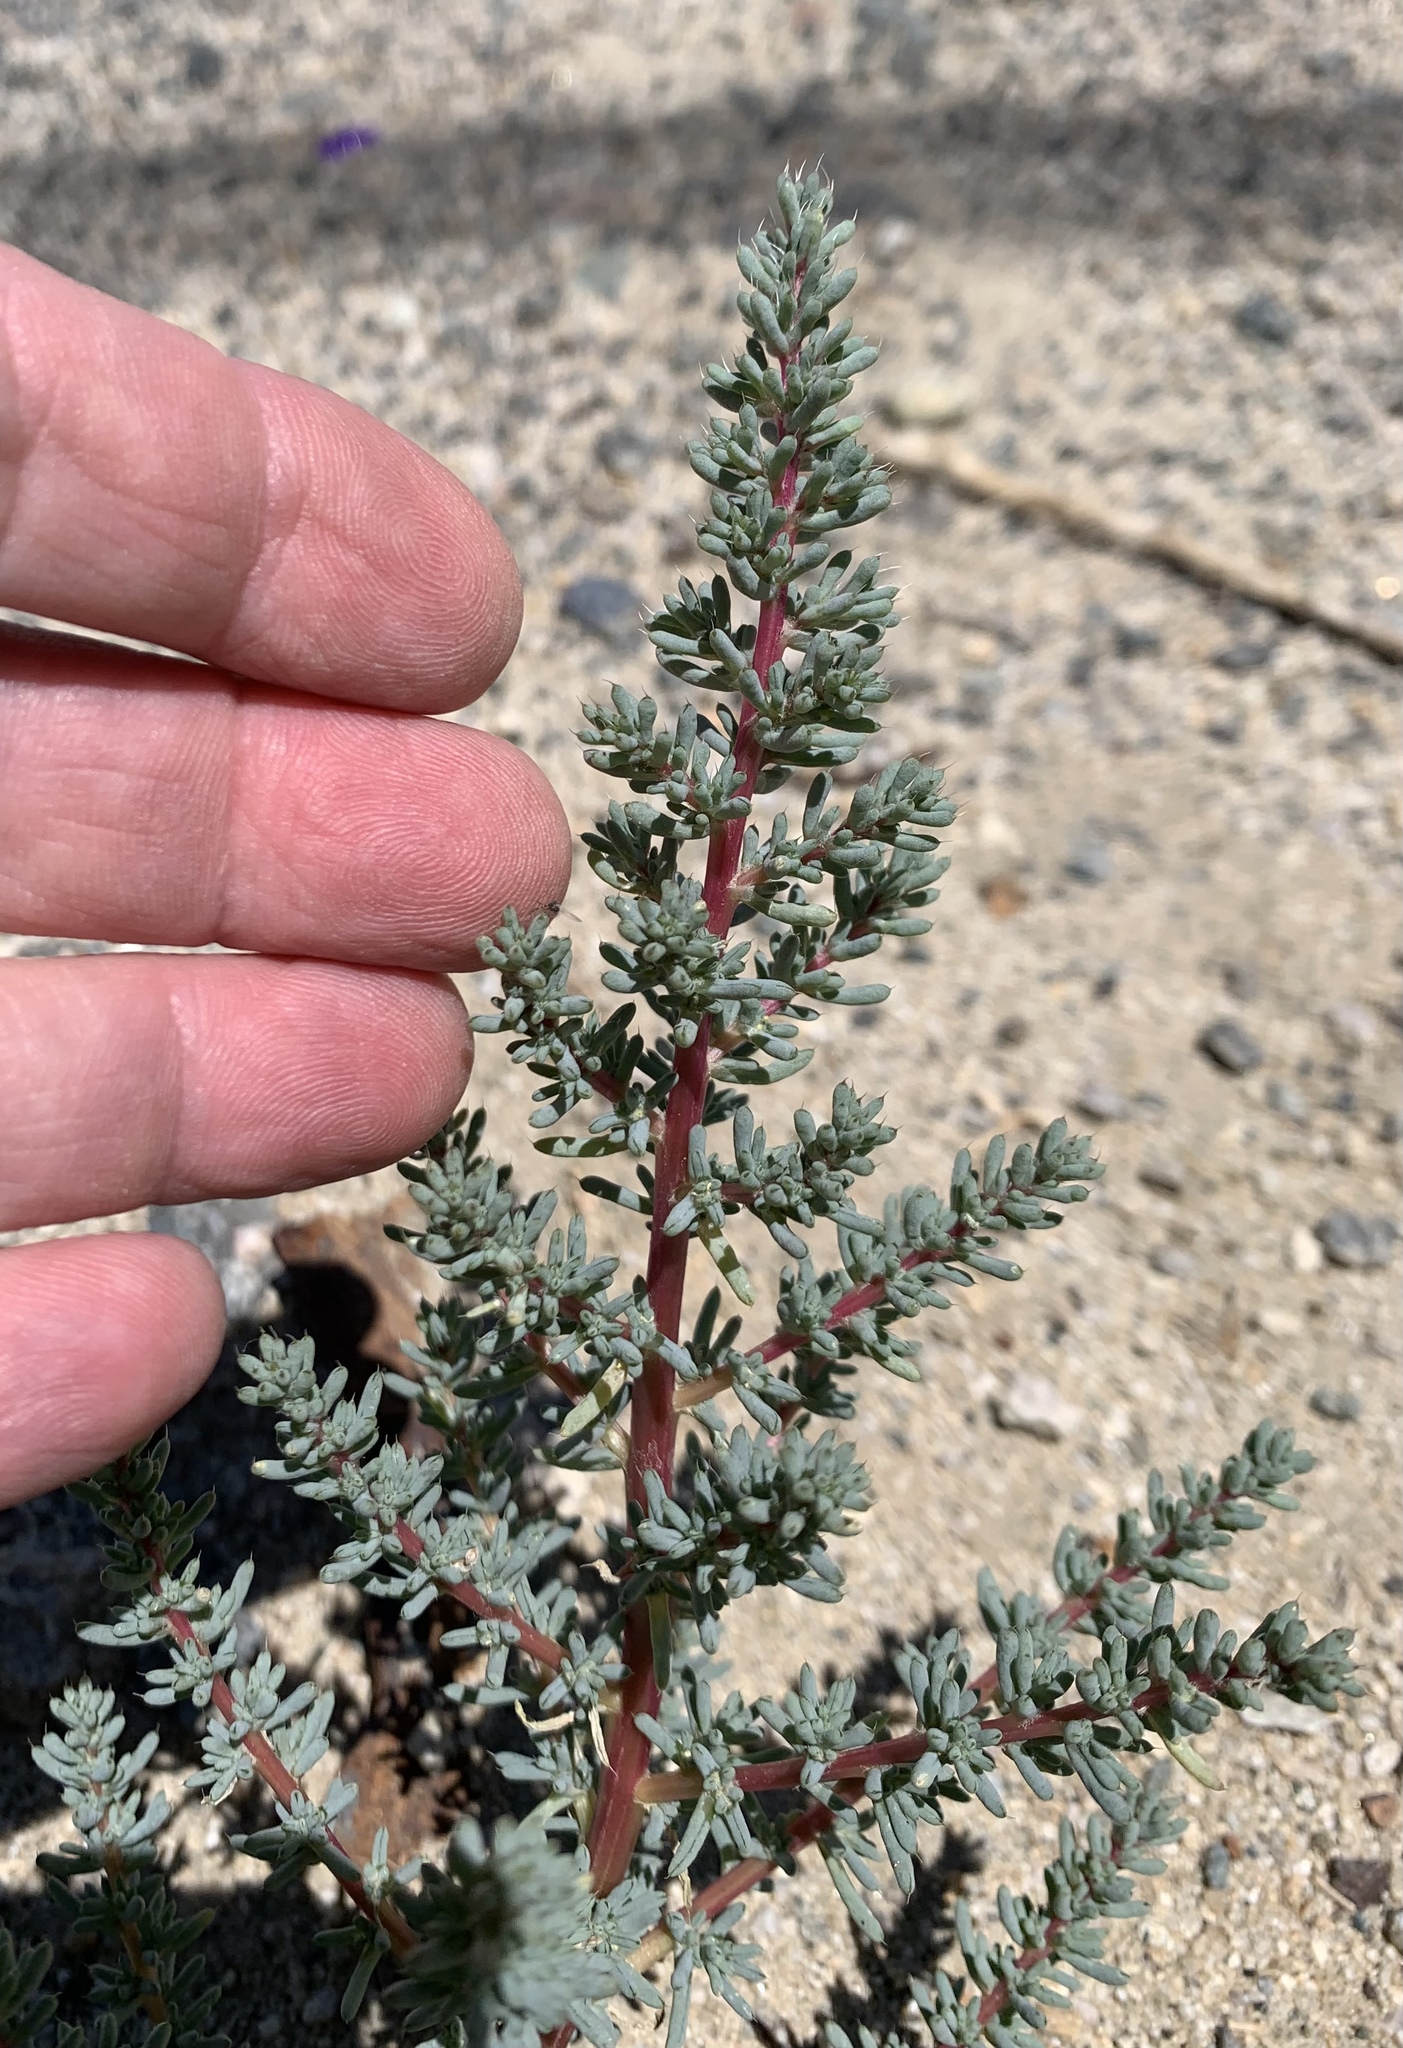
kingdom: Plantae
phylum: Tracheophyta
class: Magnoliopsida
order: Caryophyllales
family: Amaranthaceae
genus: Halogeton
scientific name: Halogeton glomeratus
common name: Saltlover
